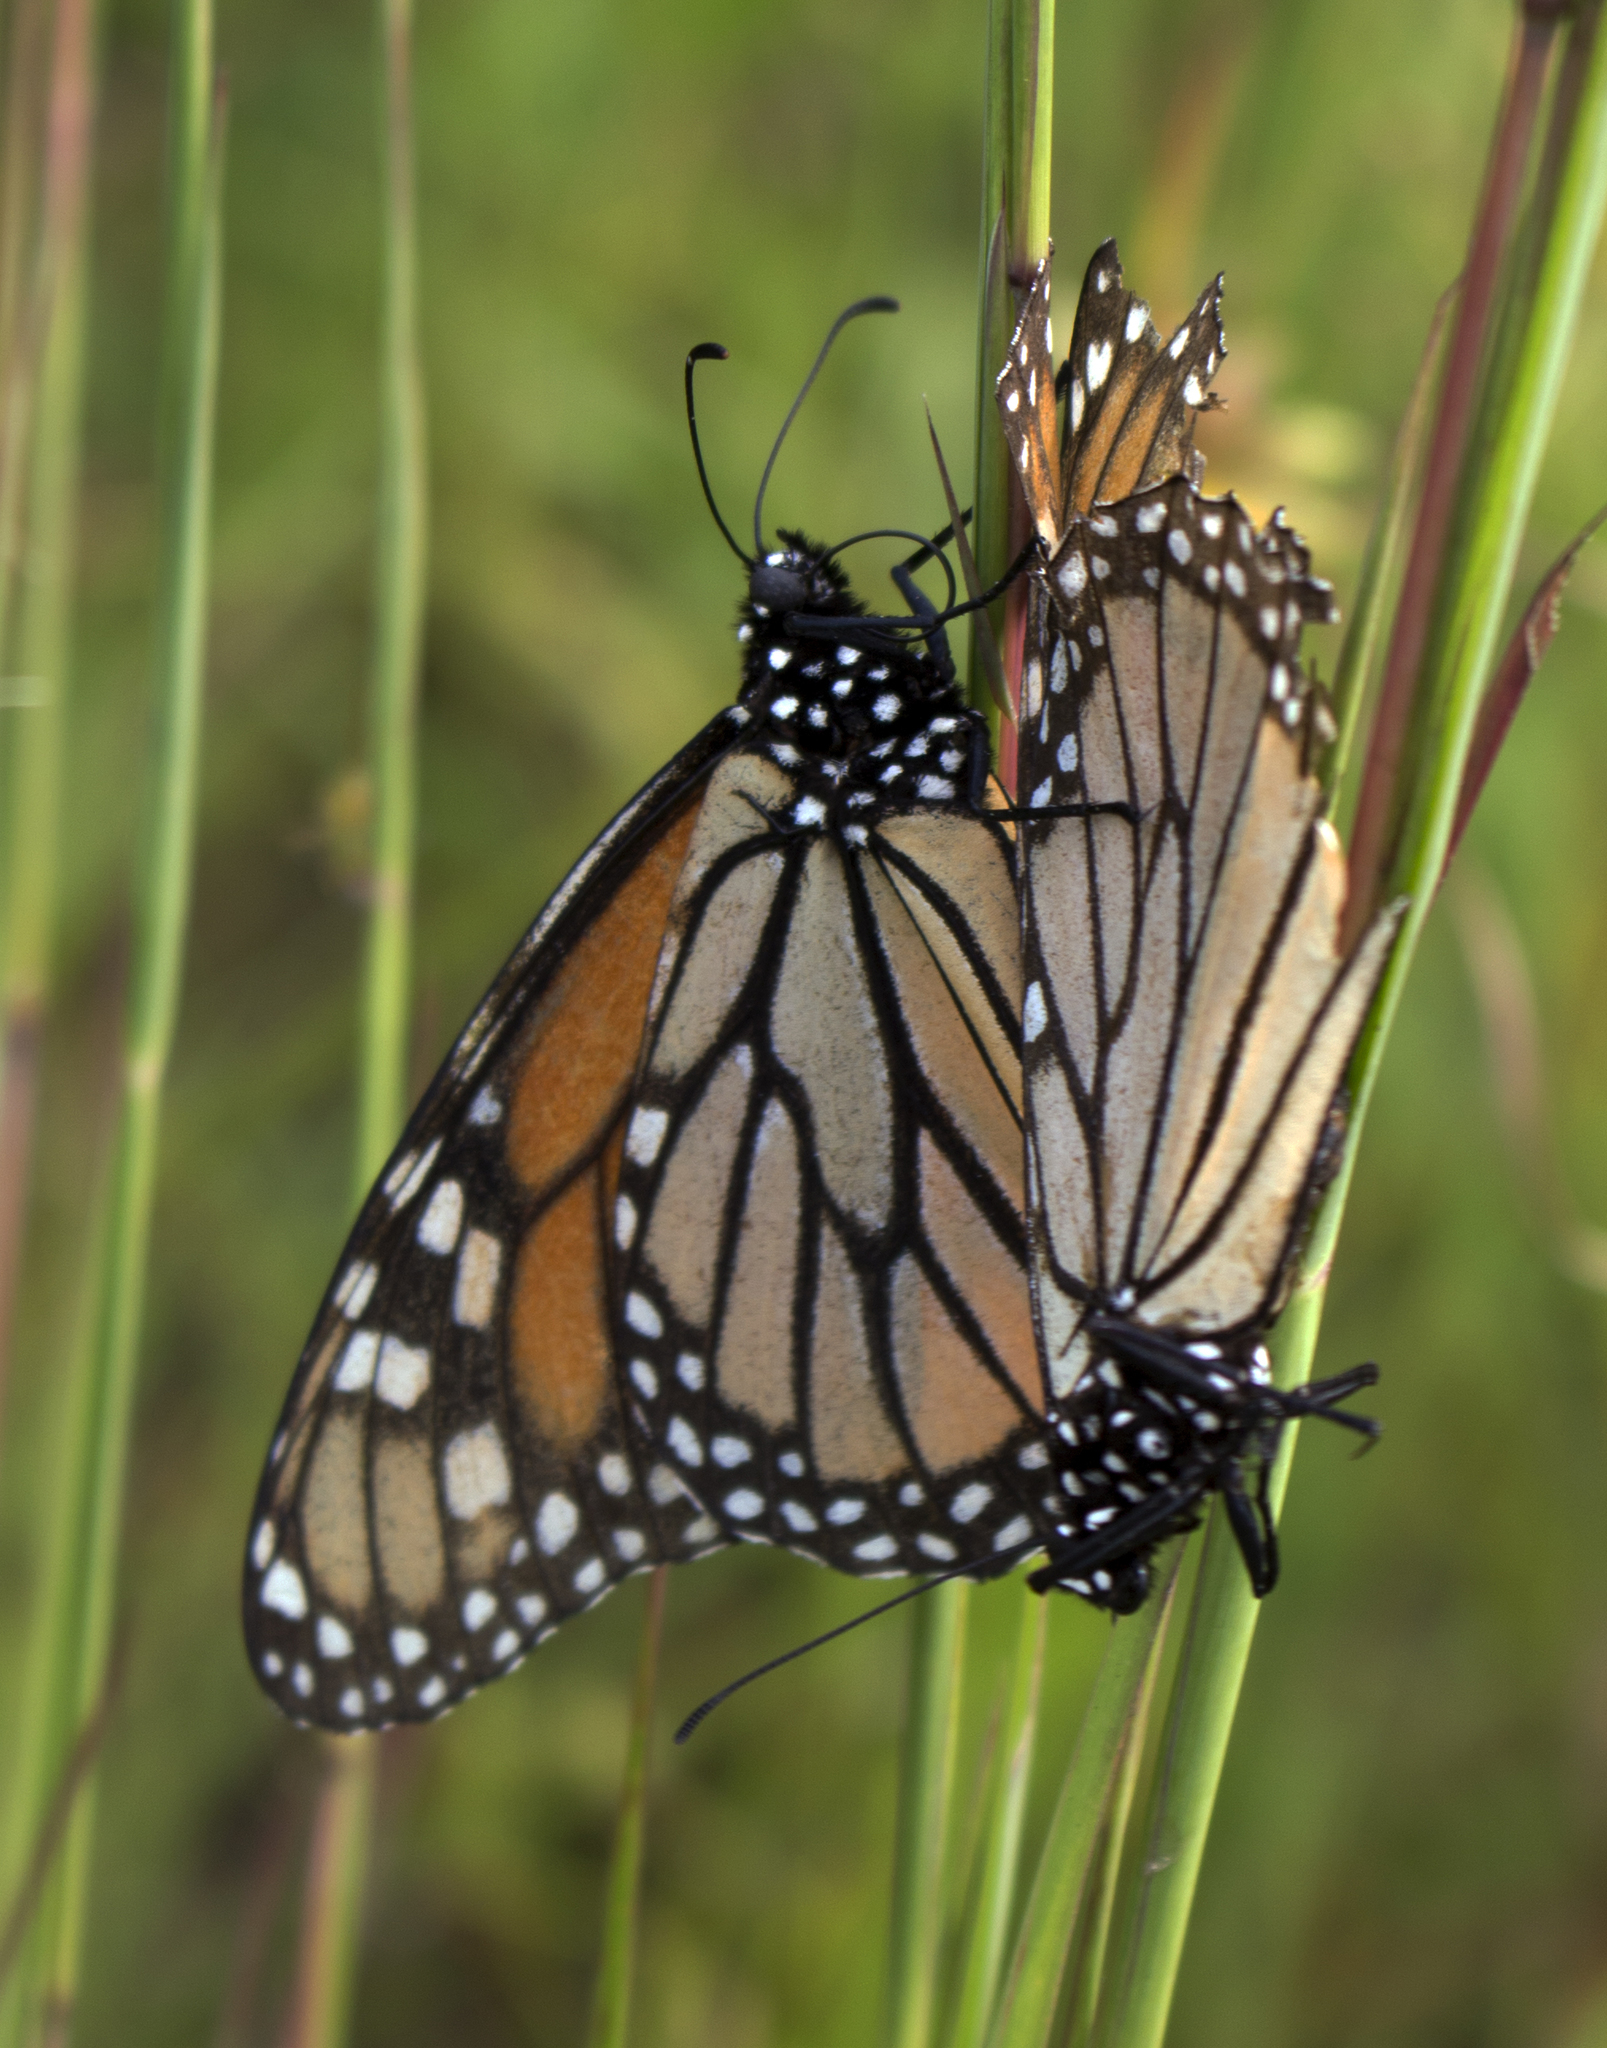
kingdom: Animalia
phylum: Arthropoda
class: Insecta
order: Lepidoptera
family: Nymphalidae
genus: Danaus
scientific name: Danaus plexippus
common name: Monarch
